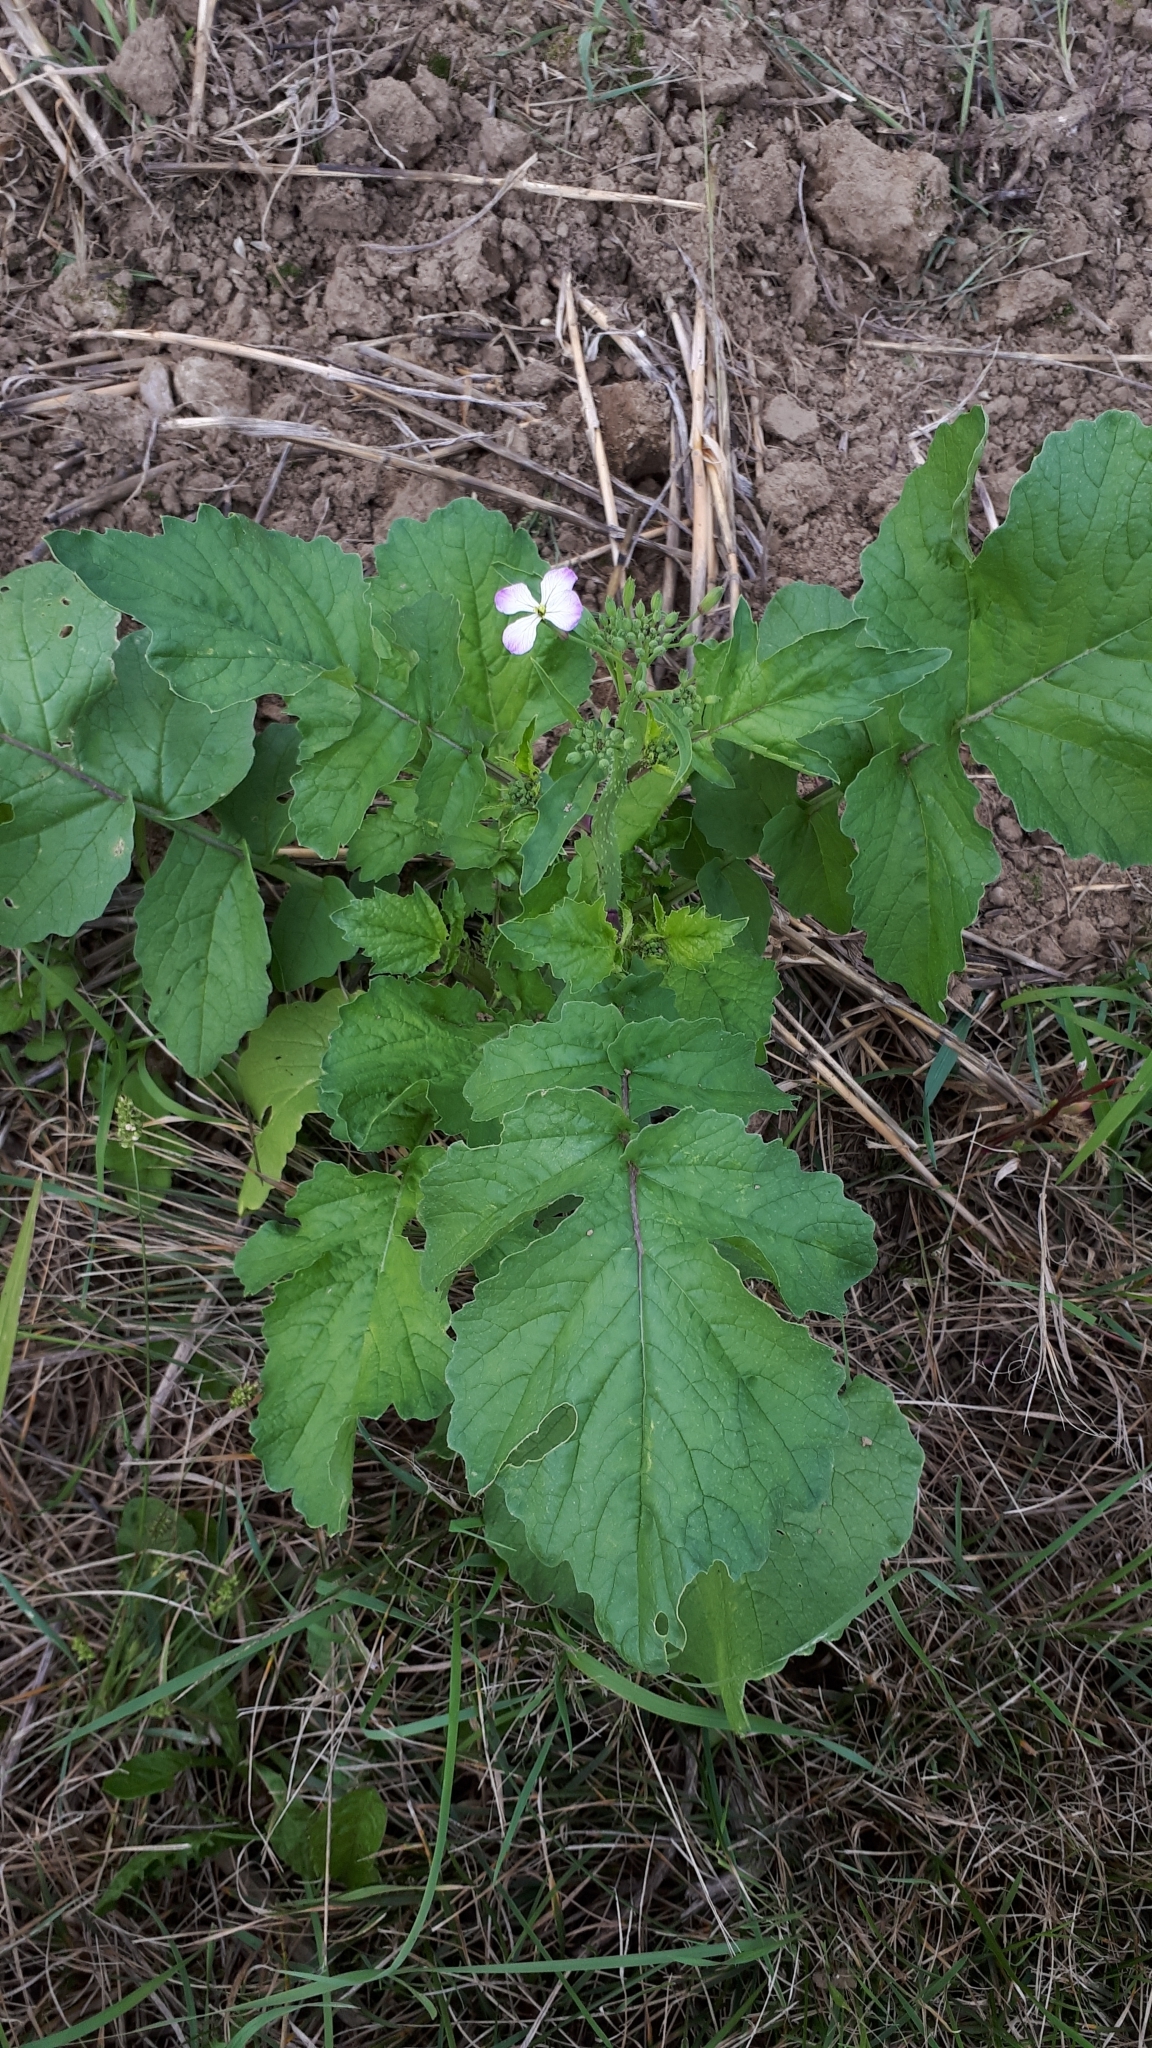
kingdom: Plantae
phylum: Tracheophyta
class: Magnoliopsida
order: Brassicales
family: Brassicaceae
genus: Raphanus
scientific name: Raphanus sativus
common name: Cultivated radish
